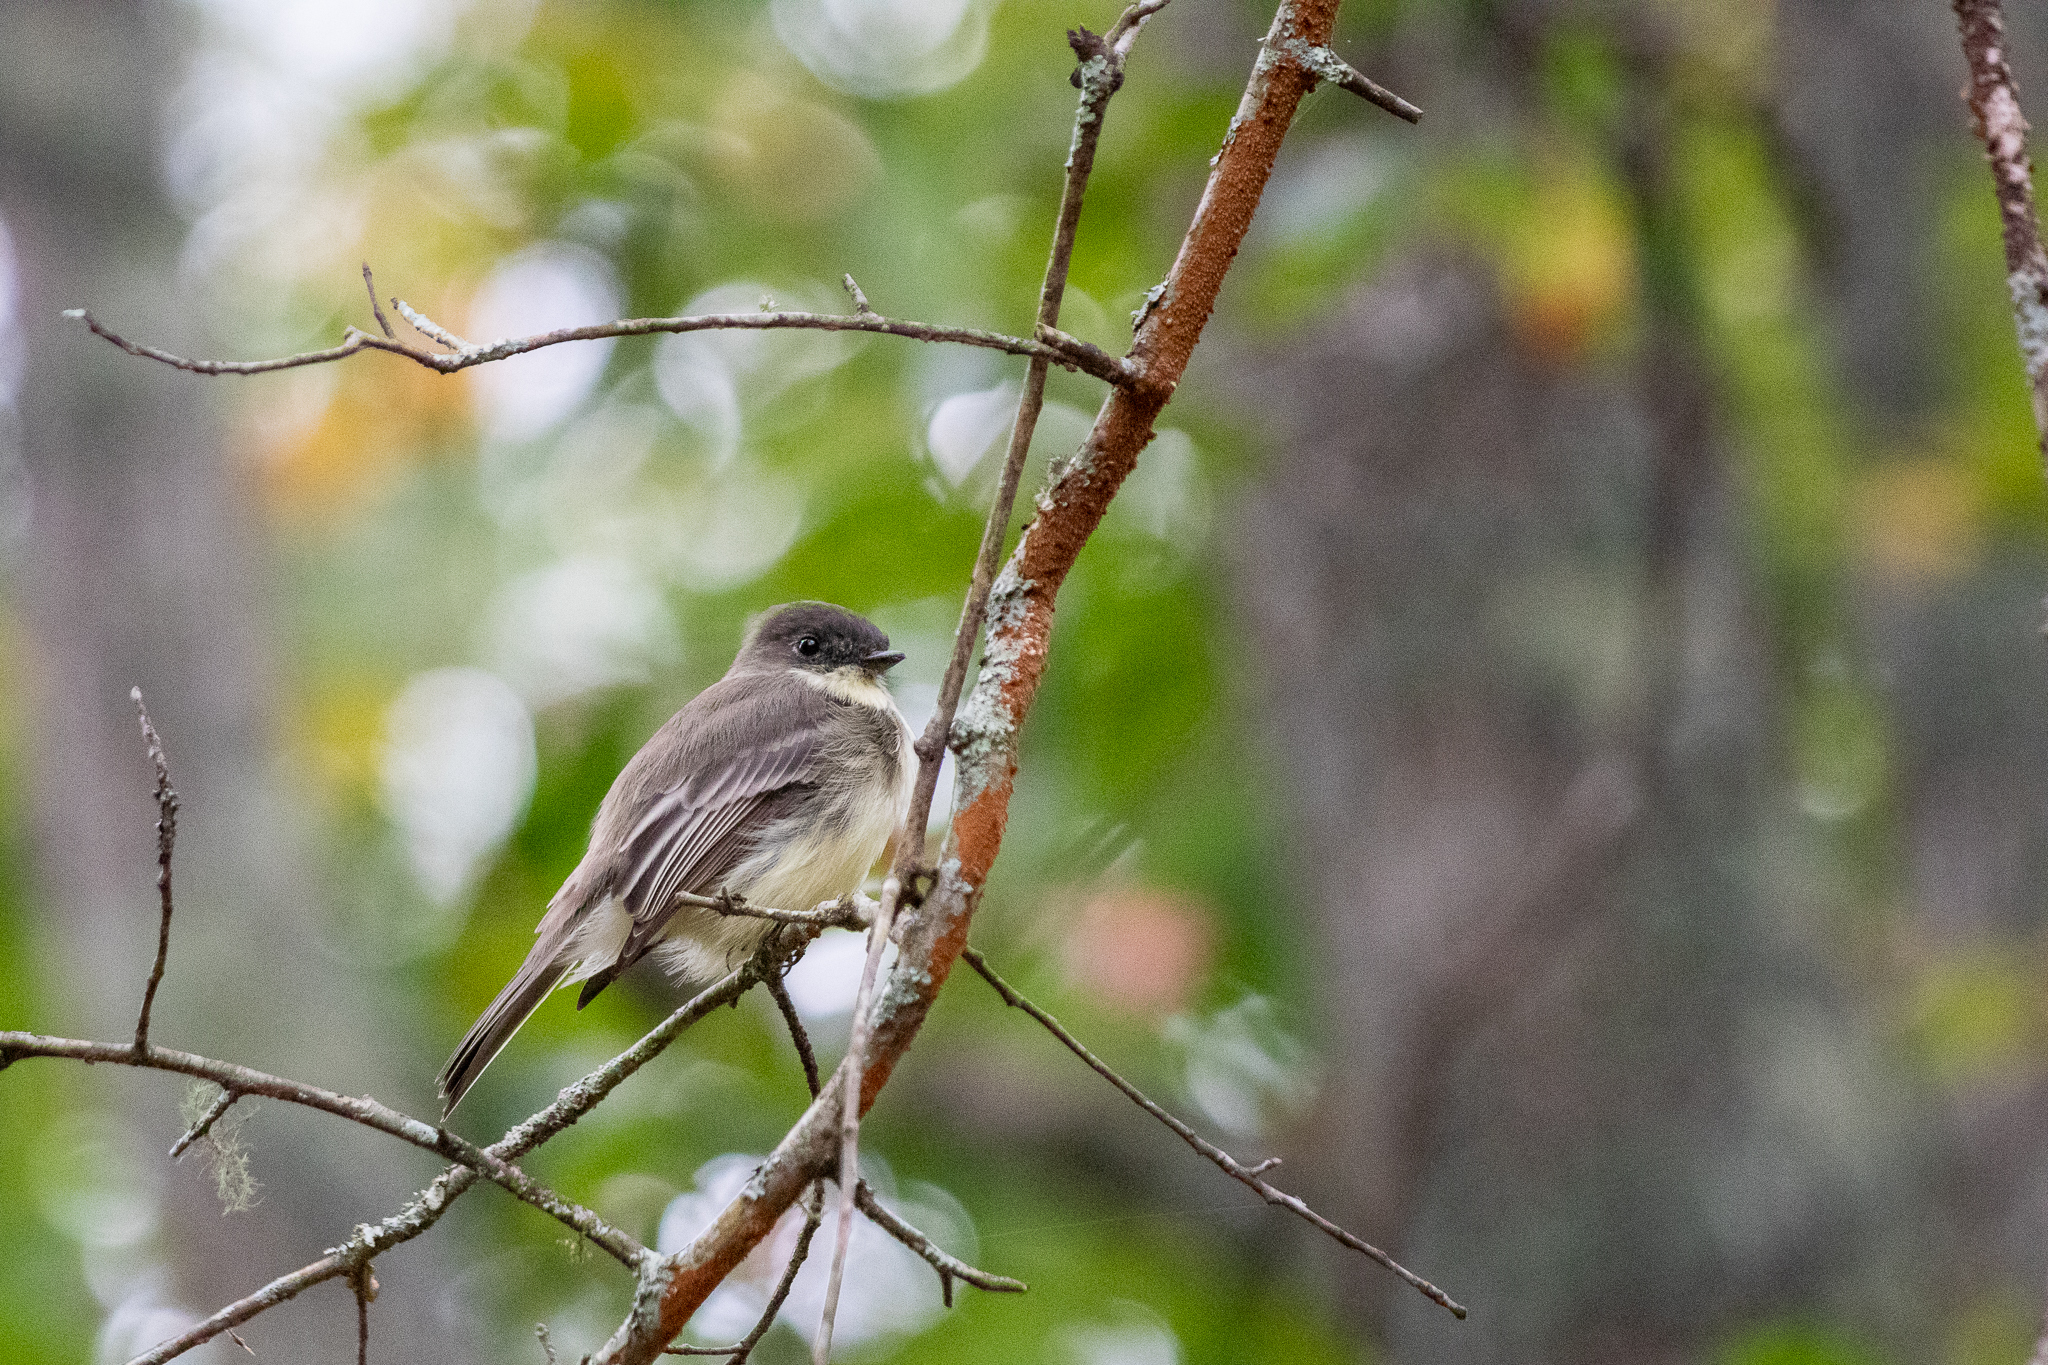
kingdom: Animalia
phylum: Chordata
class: Aves
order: Passeriformes
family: Tyrannidae
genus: Sayornis
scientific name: Sayornis phoebe
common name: Eastern phoebe
